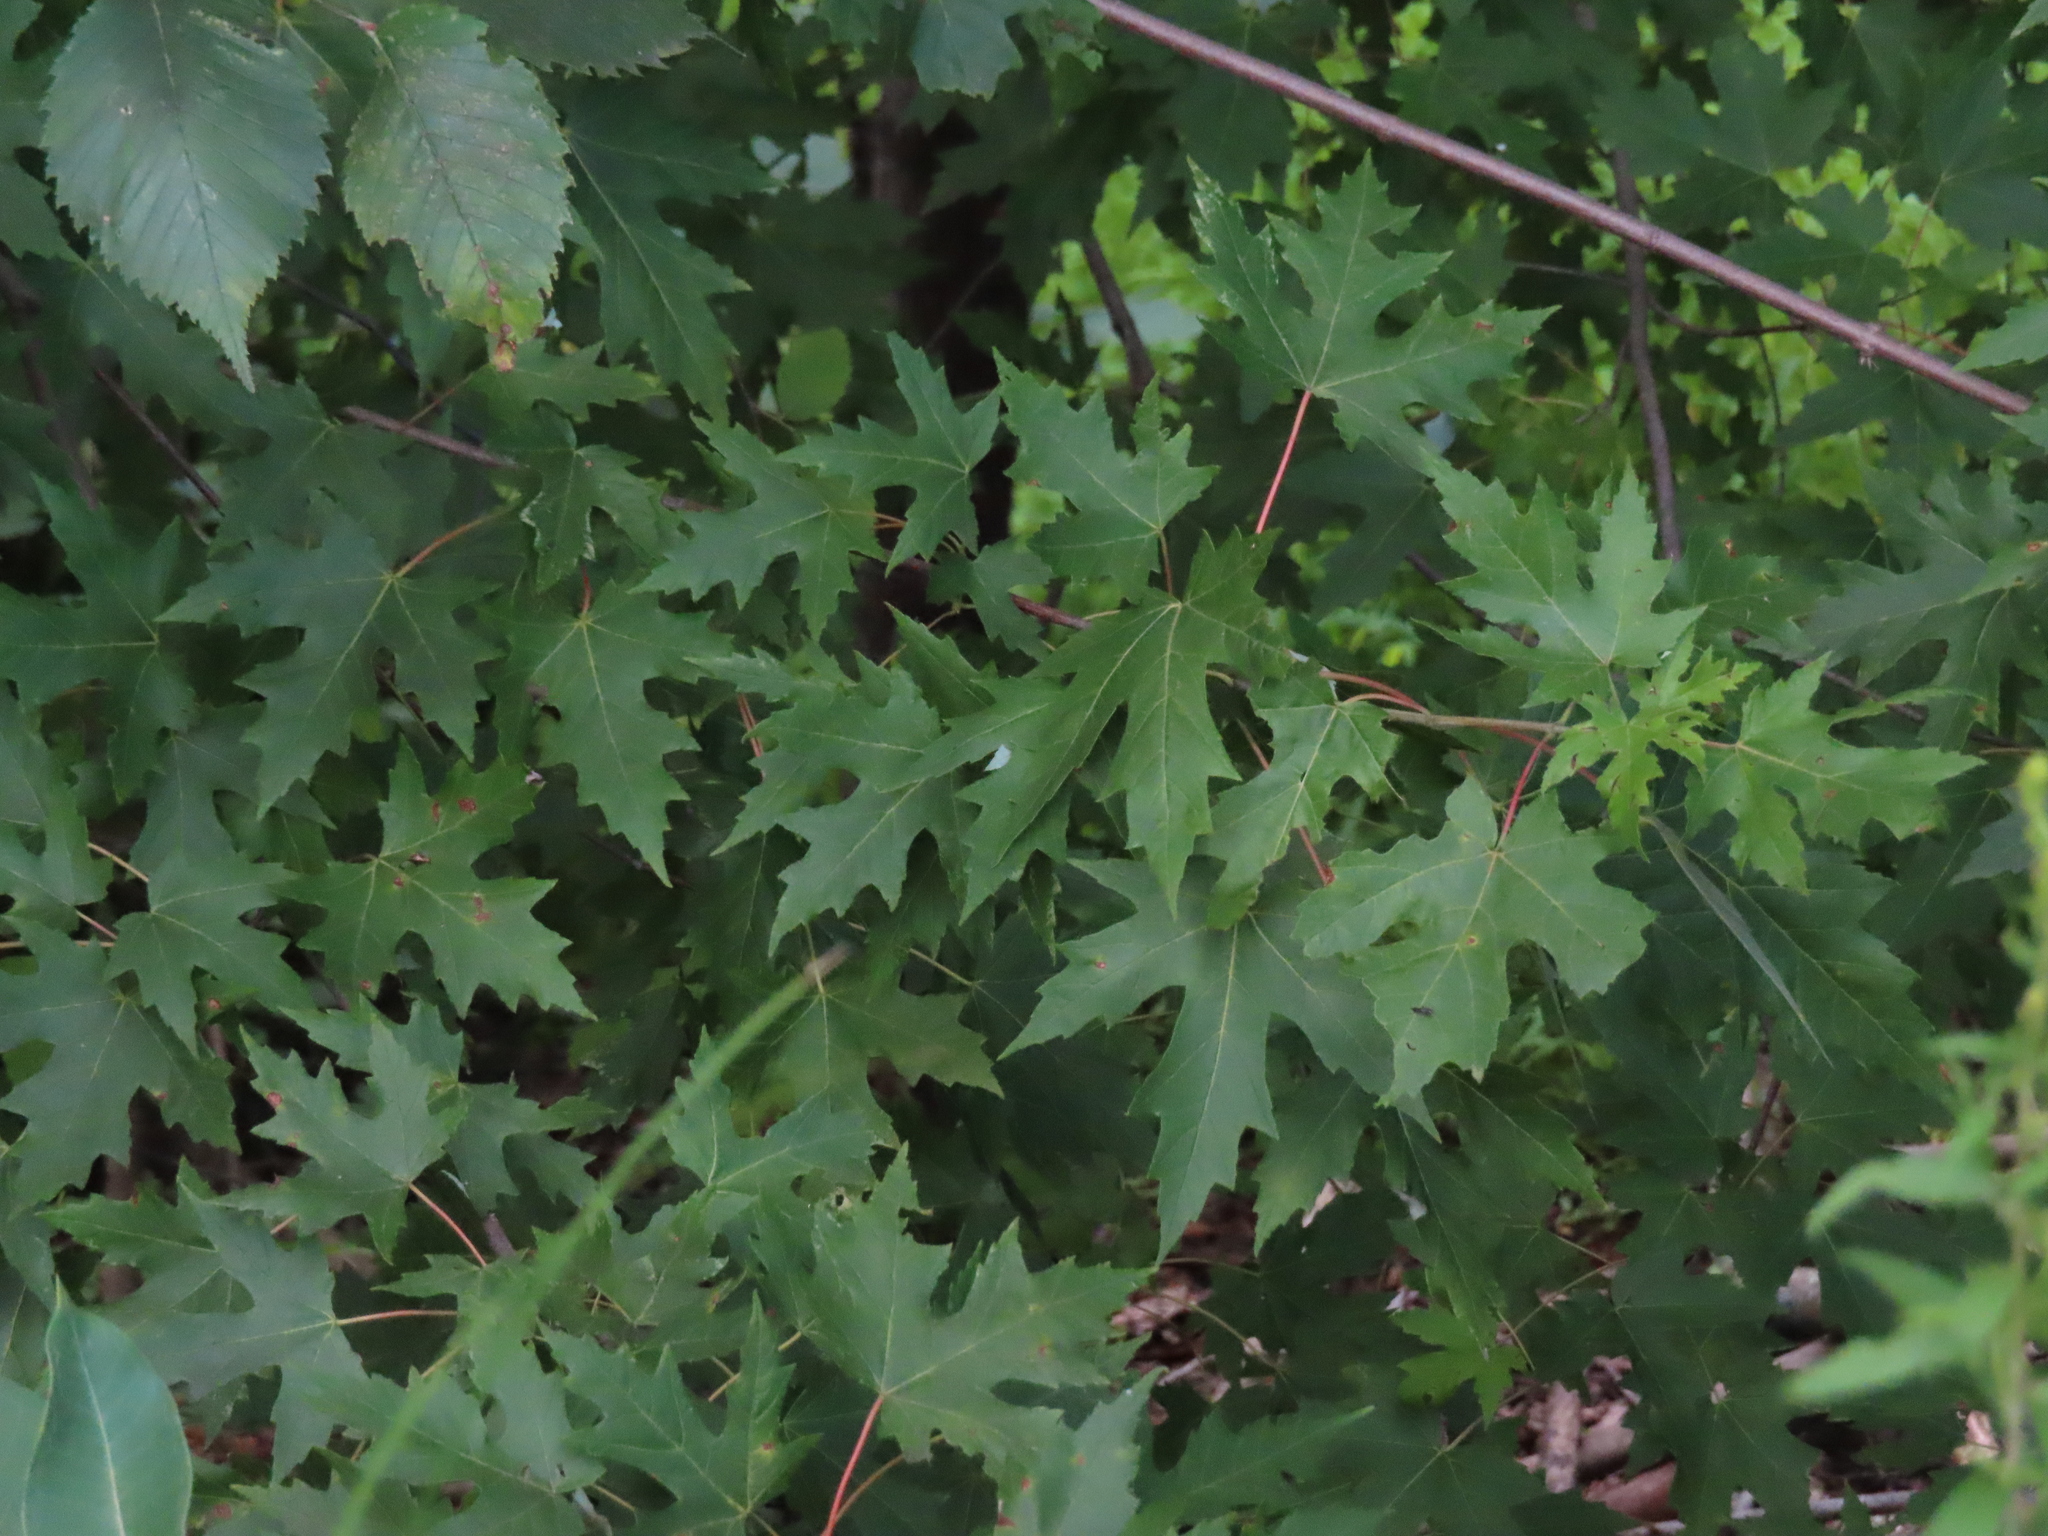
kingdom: Plantae
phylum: Tracheophyta
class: Magnoliopsida
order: Sapindales
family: Sapindaceae
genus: Acer
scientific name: Acer saccharinum
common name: Silver maple
